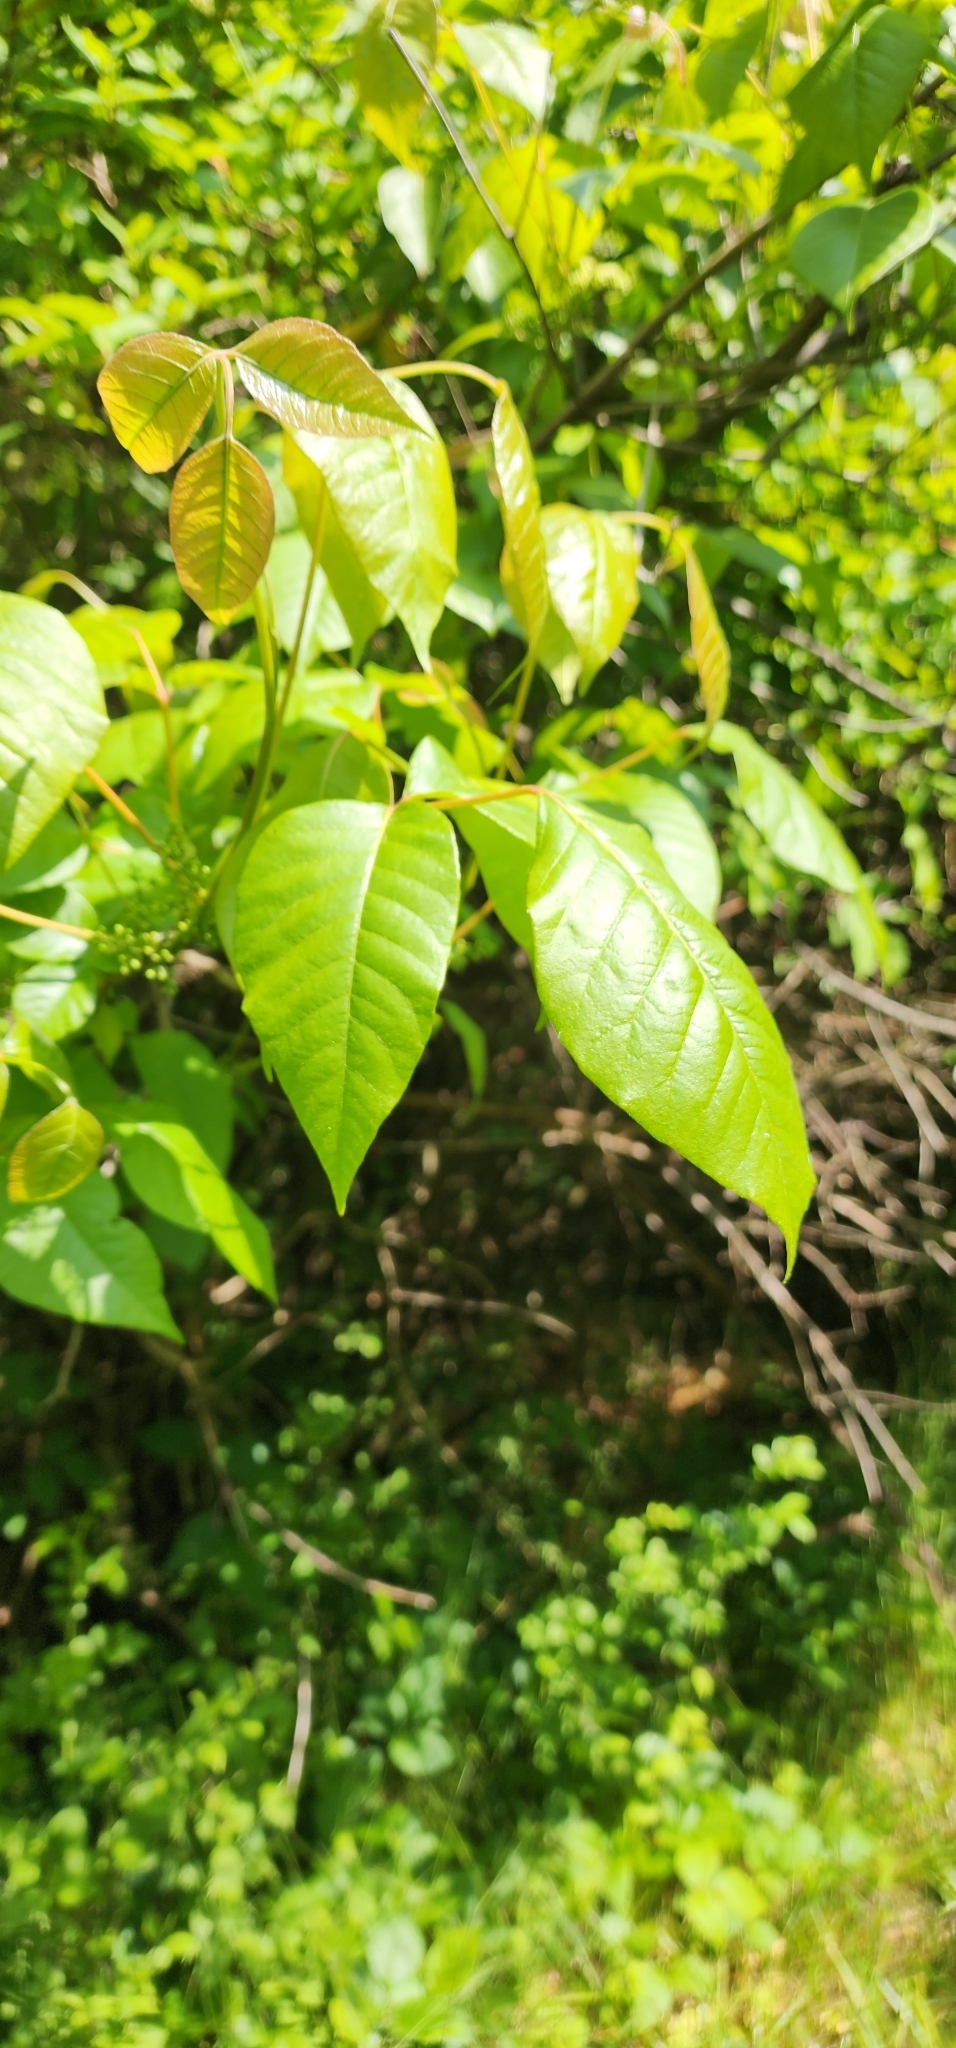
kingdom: Plantae
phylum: Tracheophyta
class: Magnoliopsida
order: Sapindales
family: Anacardiaceae
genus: Toxicodendron
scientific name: Toxicodendron radicans
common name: Poison ivy
